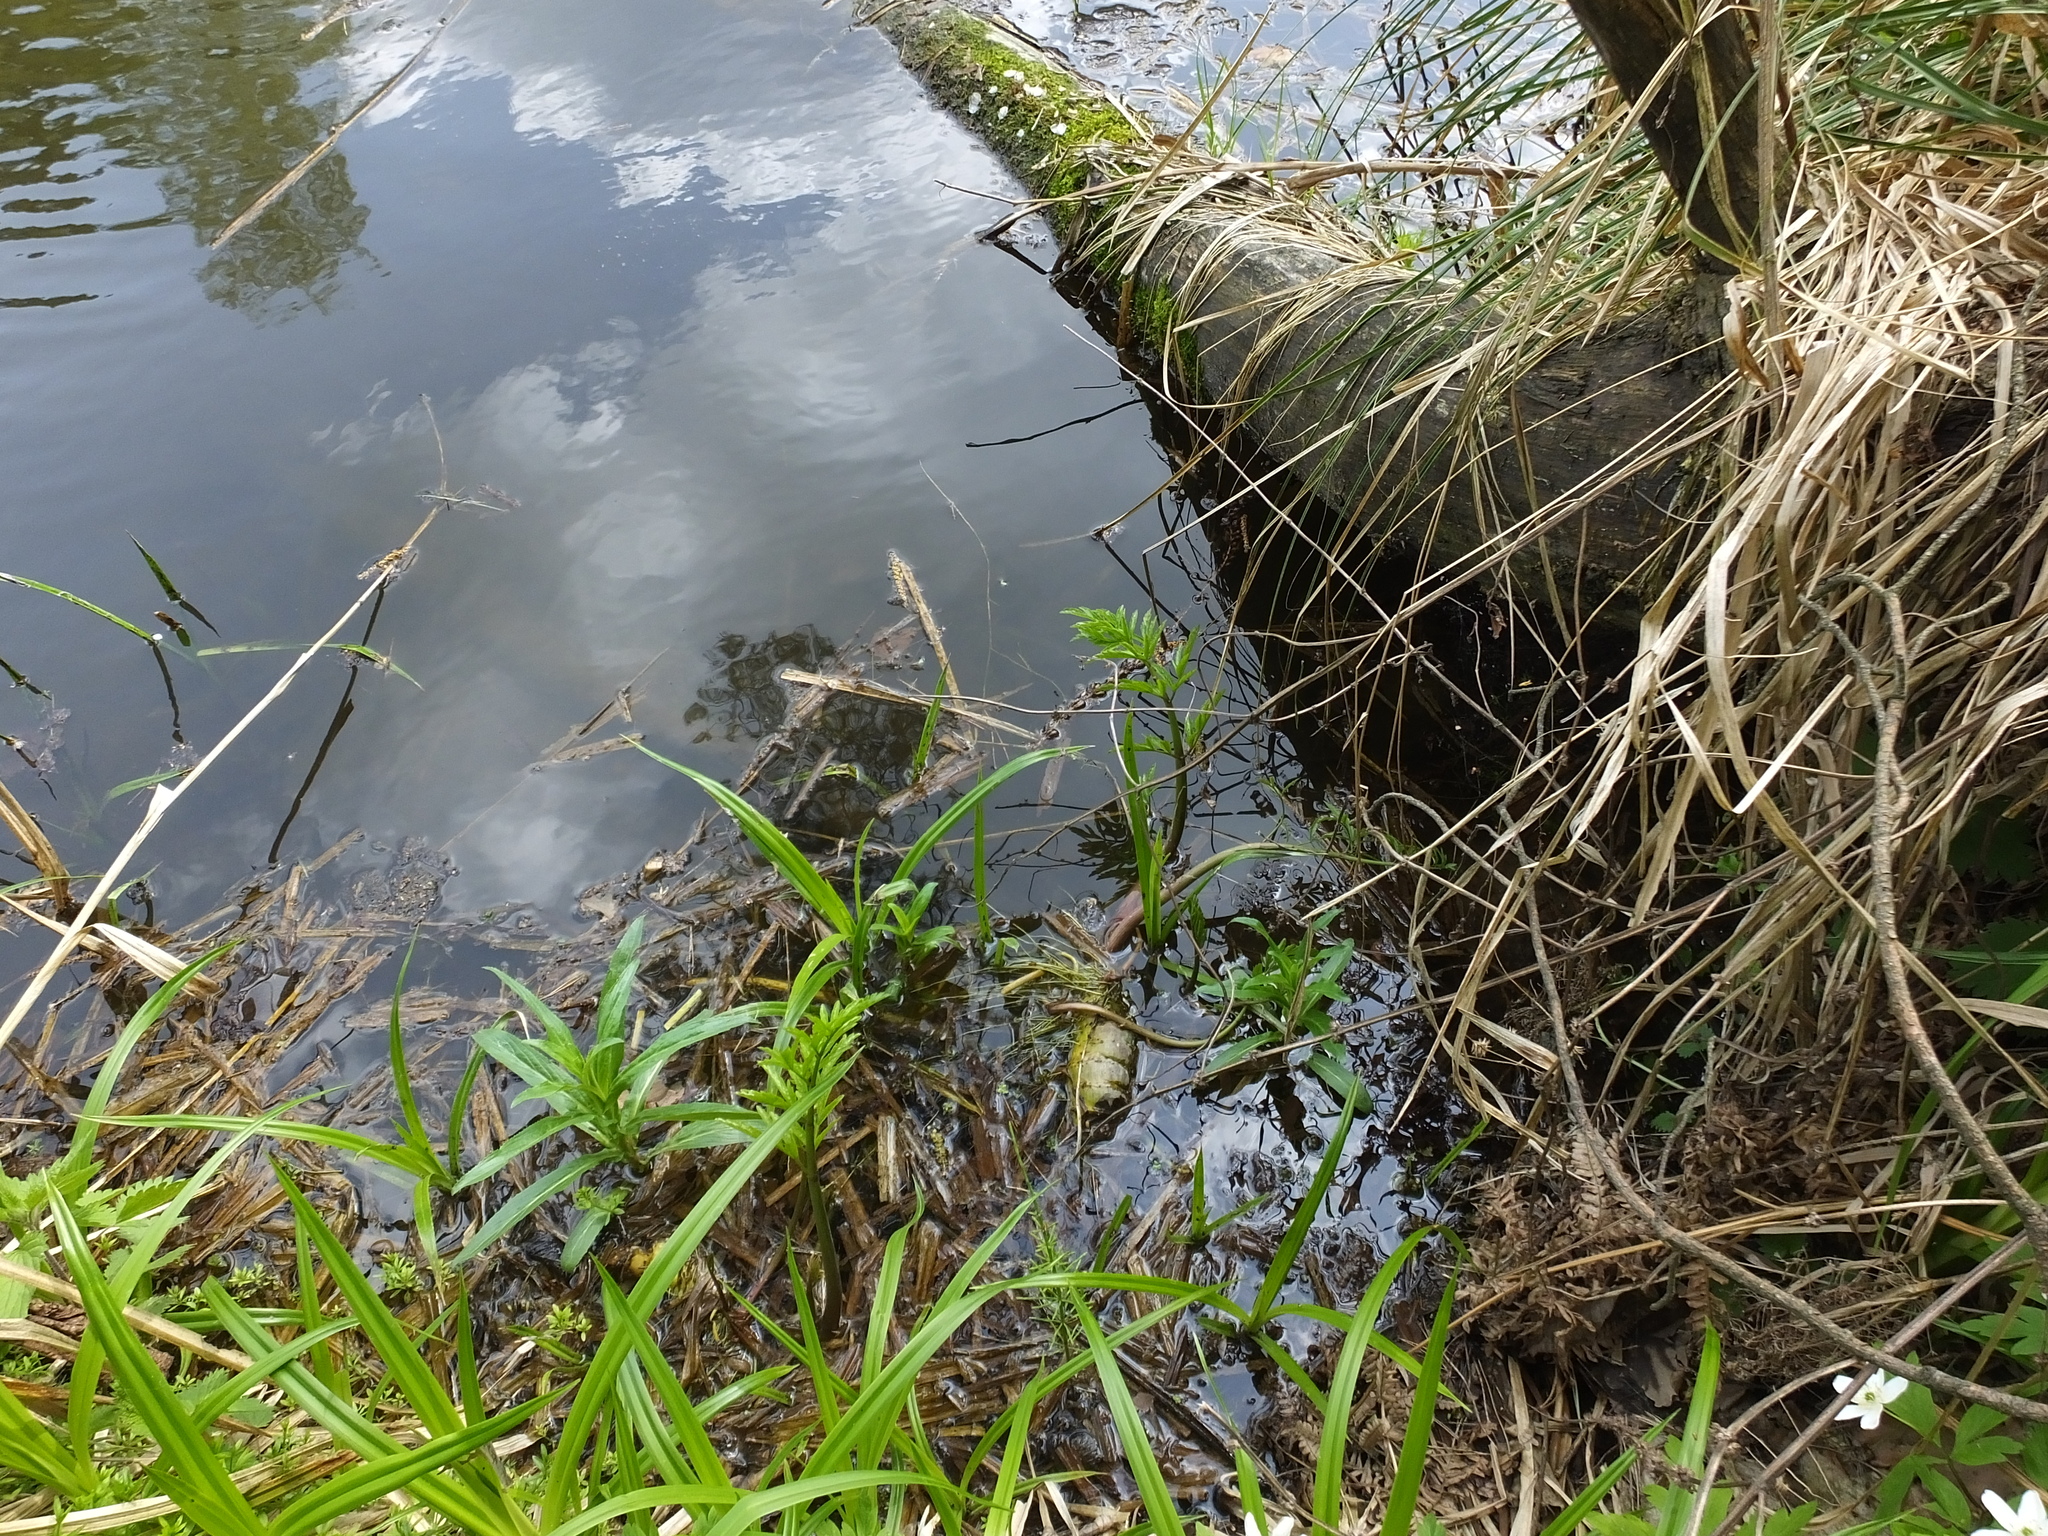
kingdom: Plantae
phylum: Tracheophyta
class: Magnoliopsida
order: Apiales
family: Apiaceae
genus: Cicuta
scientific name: Cicuta virosa
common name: Cowbane
